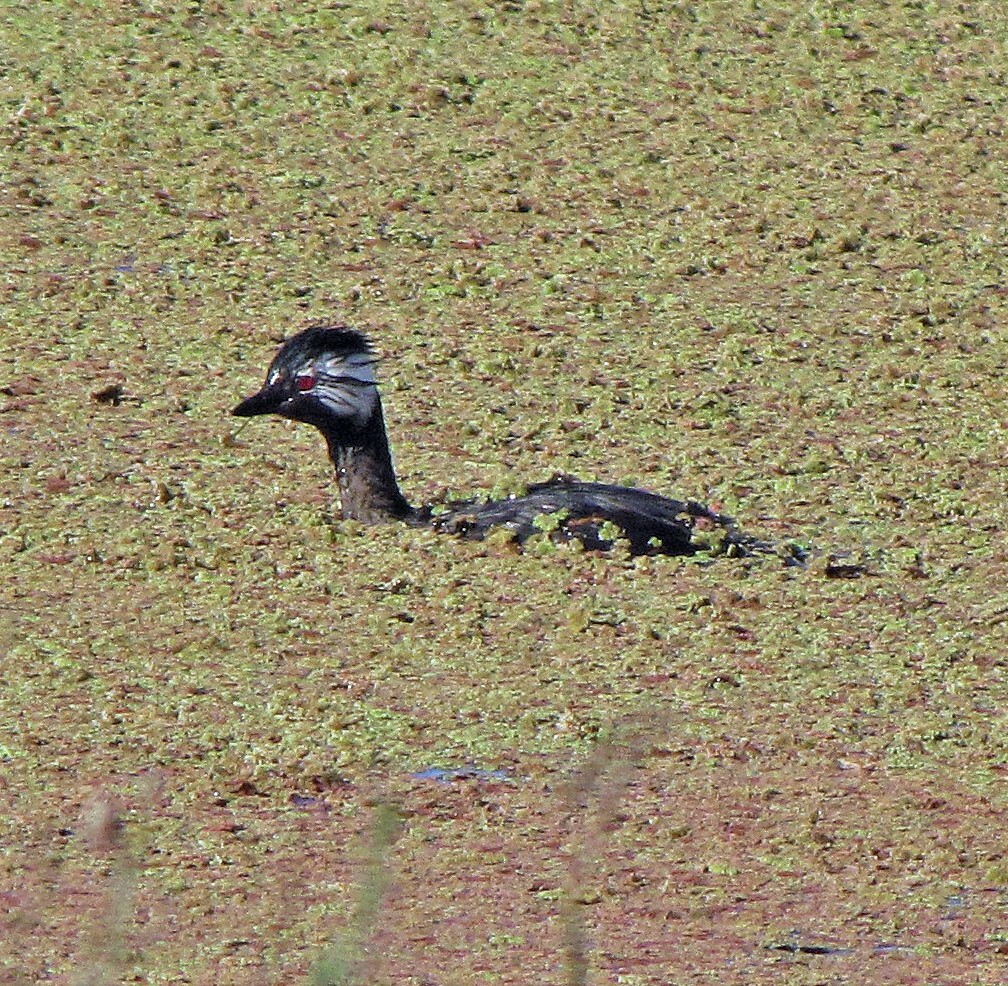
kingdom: Animalia
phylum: Chordata
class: Aves
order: Podicipediformes
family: Podicipedidae
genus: Rollandia
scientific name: Rollandia rolland
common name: White-tufted grebe
